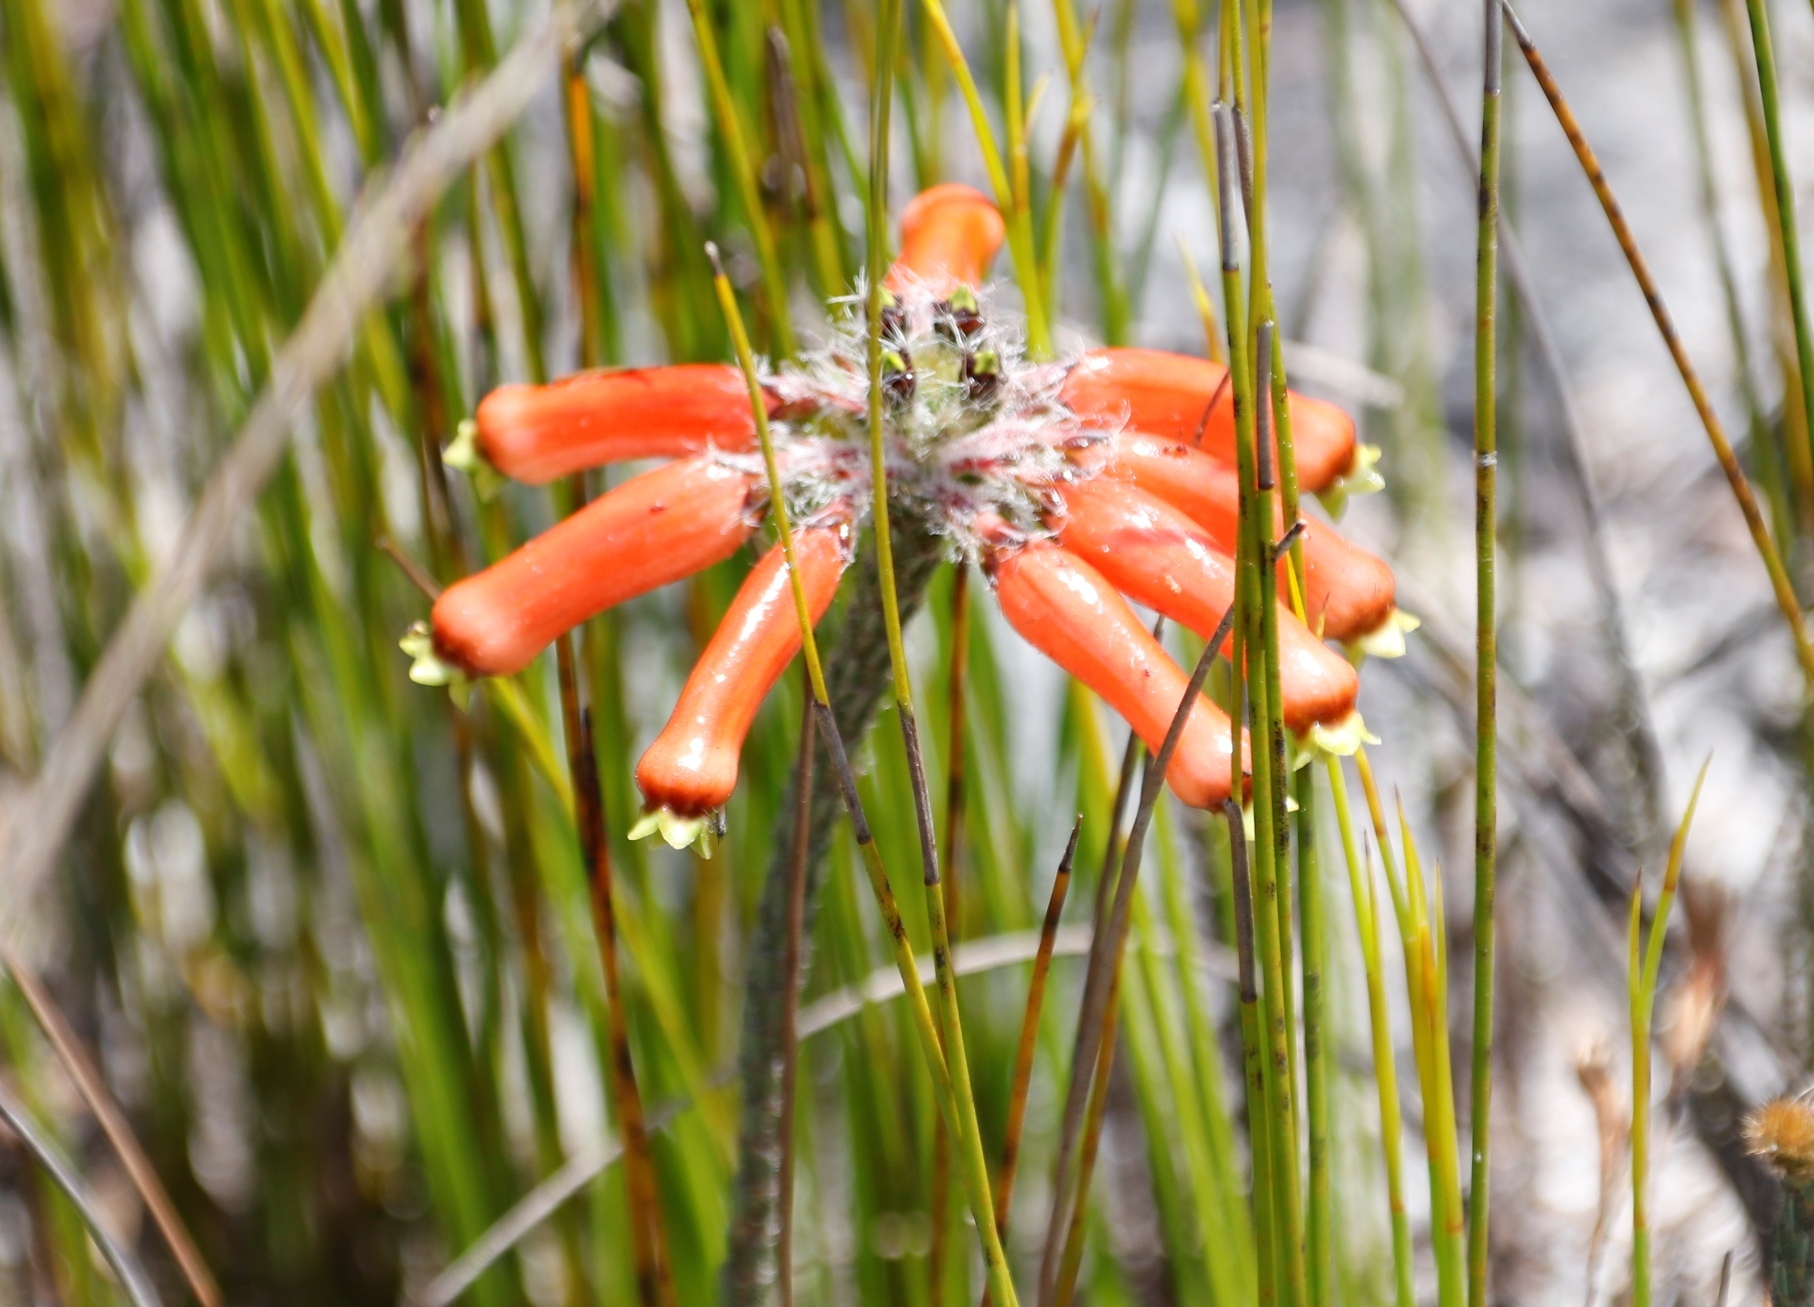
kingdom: Plantae
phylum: Tracheophyta
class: Magnoliopsida
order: Ericales
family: Ericaceae
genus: Erica
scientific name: Erica massonii
